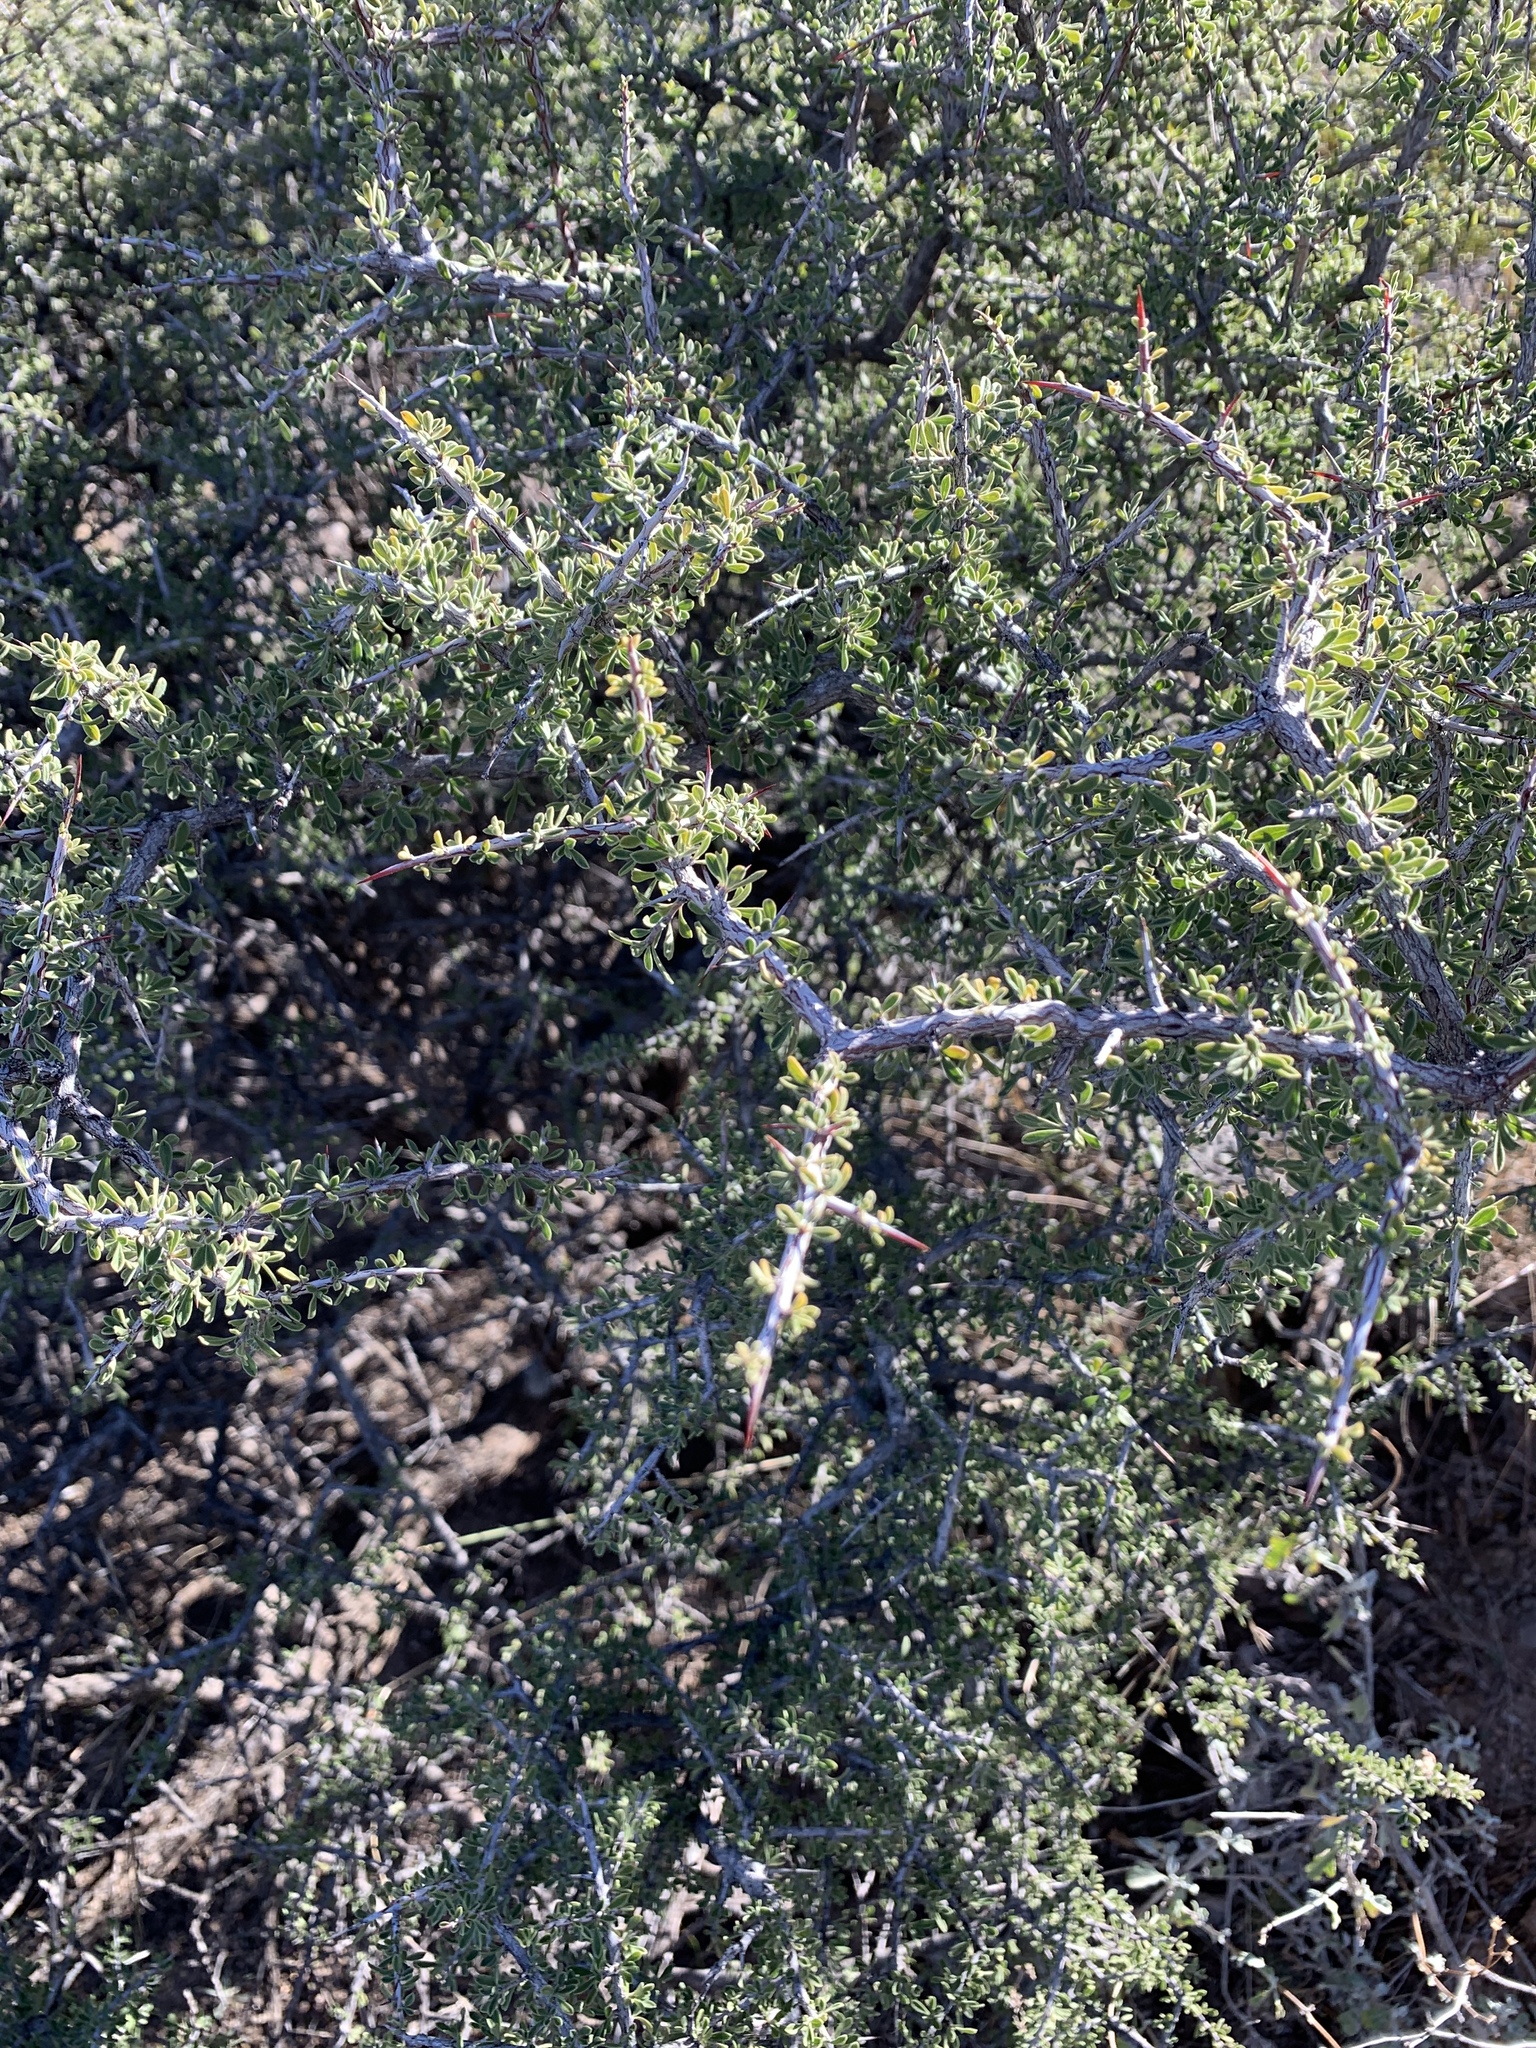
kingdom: Plantae
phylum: Tracheophyta
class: Magnoliopsida
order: Rosales
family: Rhamnaceae
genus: Condalia
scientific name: Condalia warnockii
